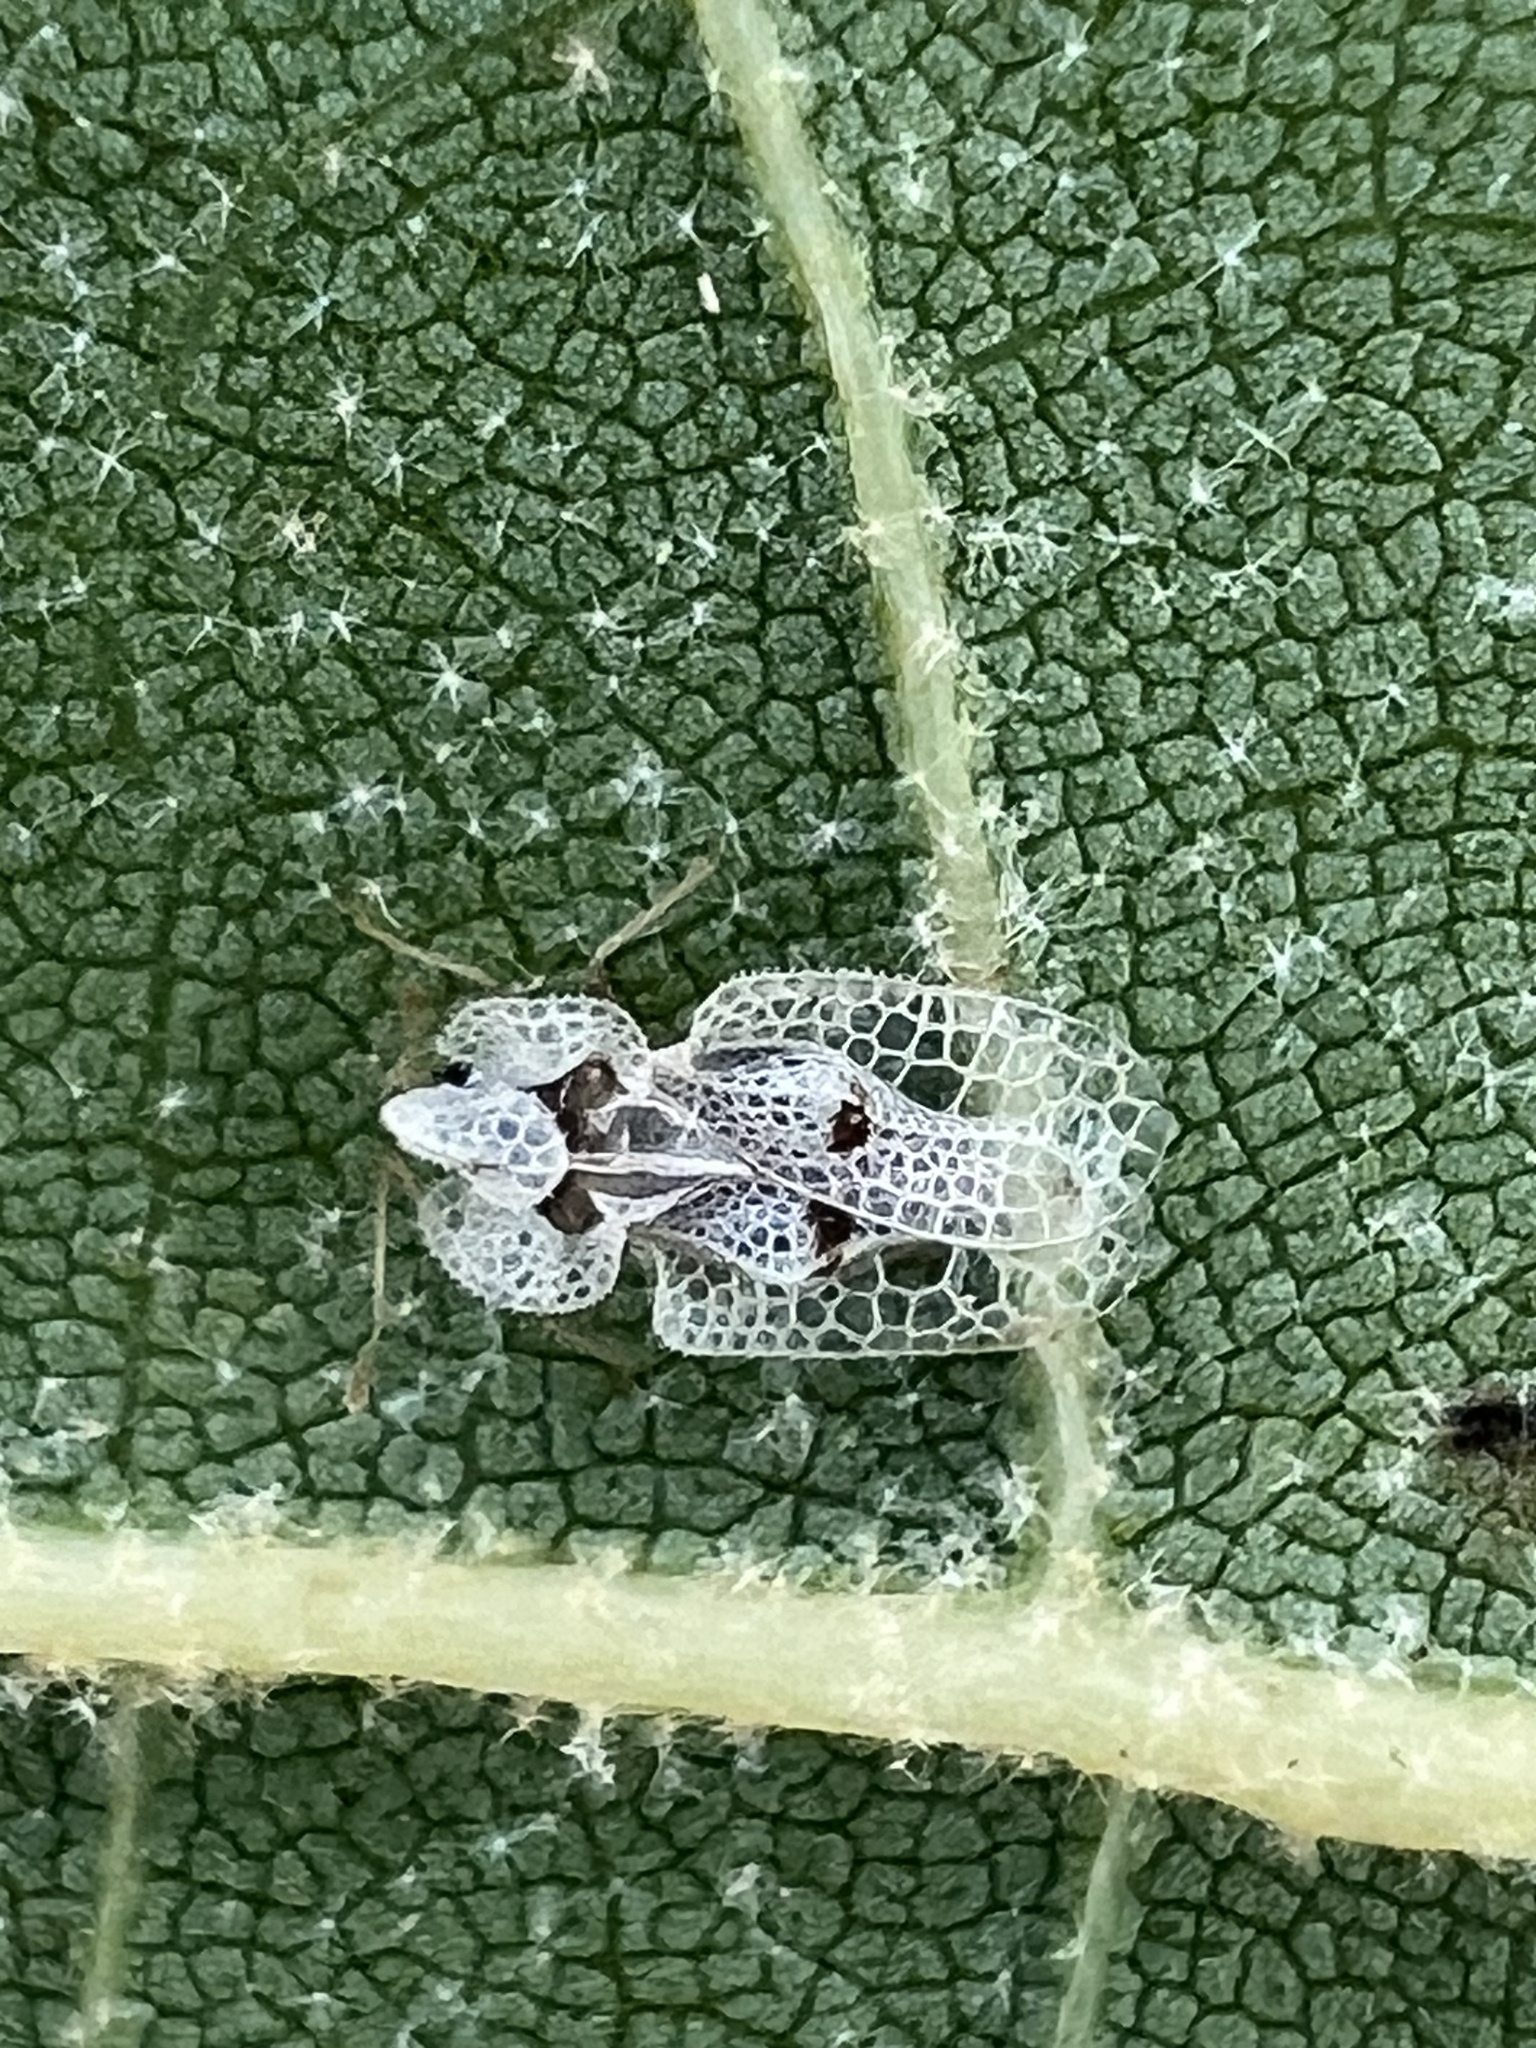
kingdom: Animalia
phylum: Arthropoda
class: Insecta
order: Hemiptera
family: Tingidae
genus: Corythucha
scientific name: Corythucha ciliata
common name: Sycamore lace bug
